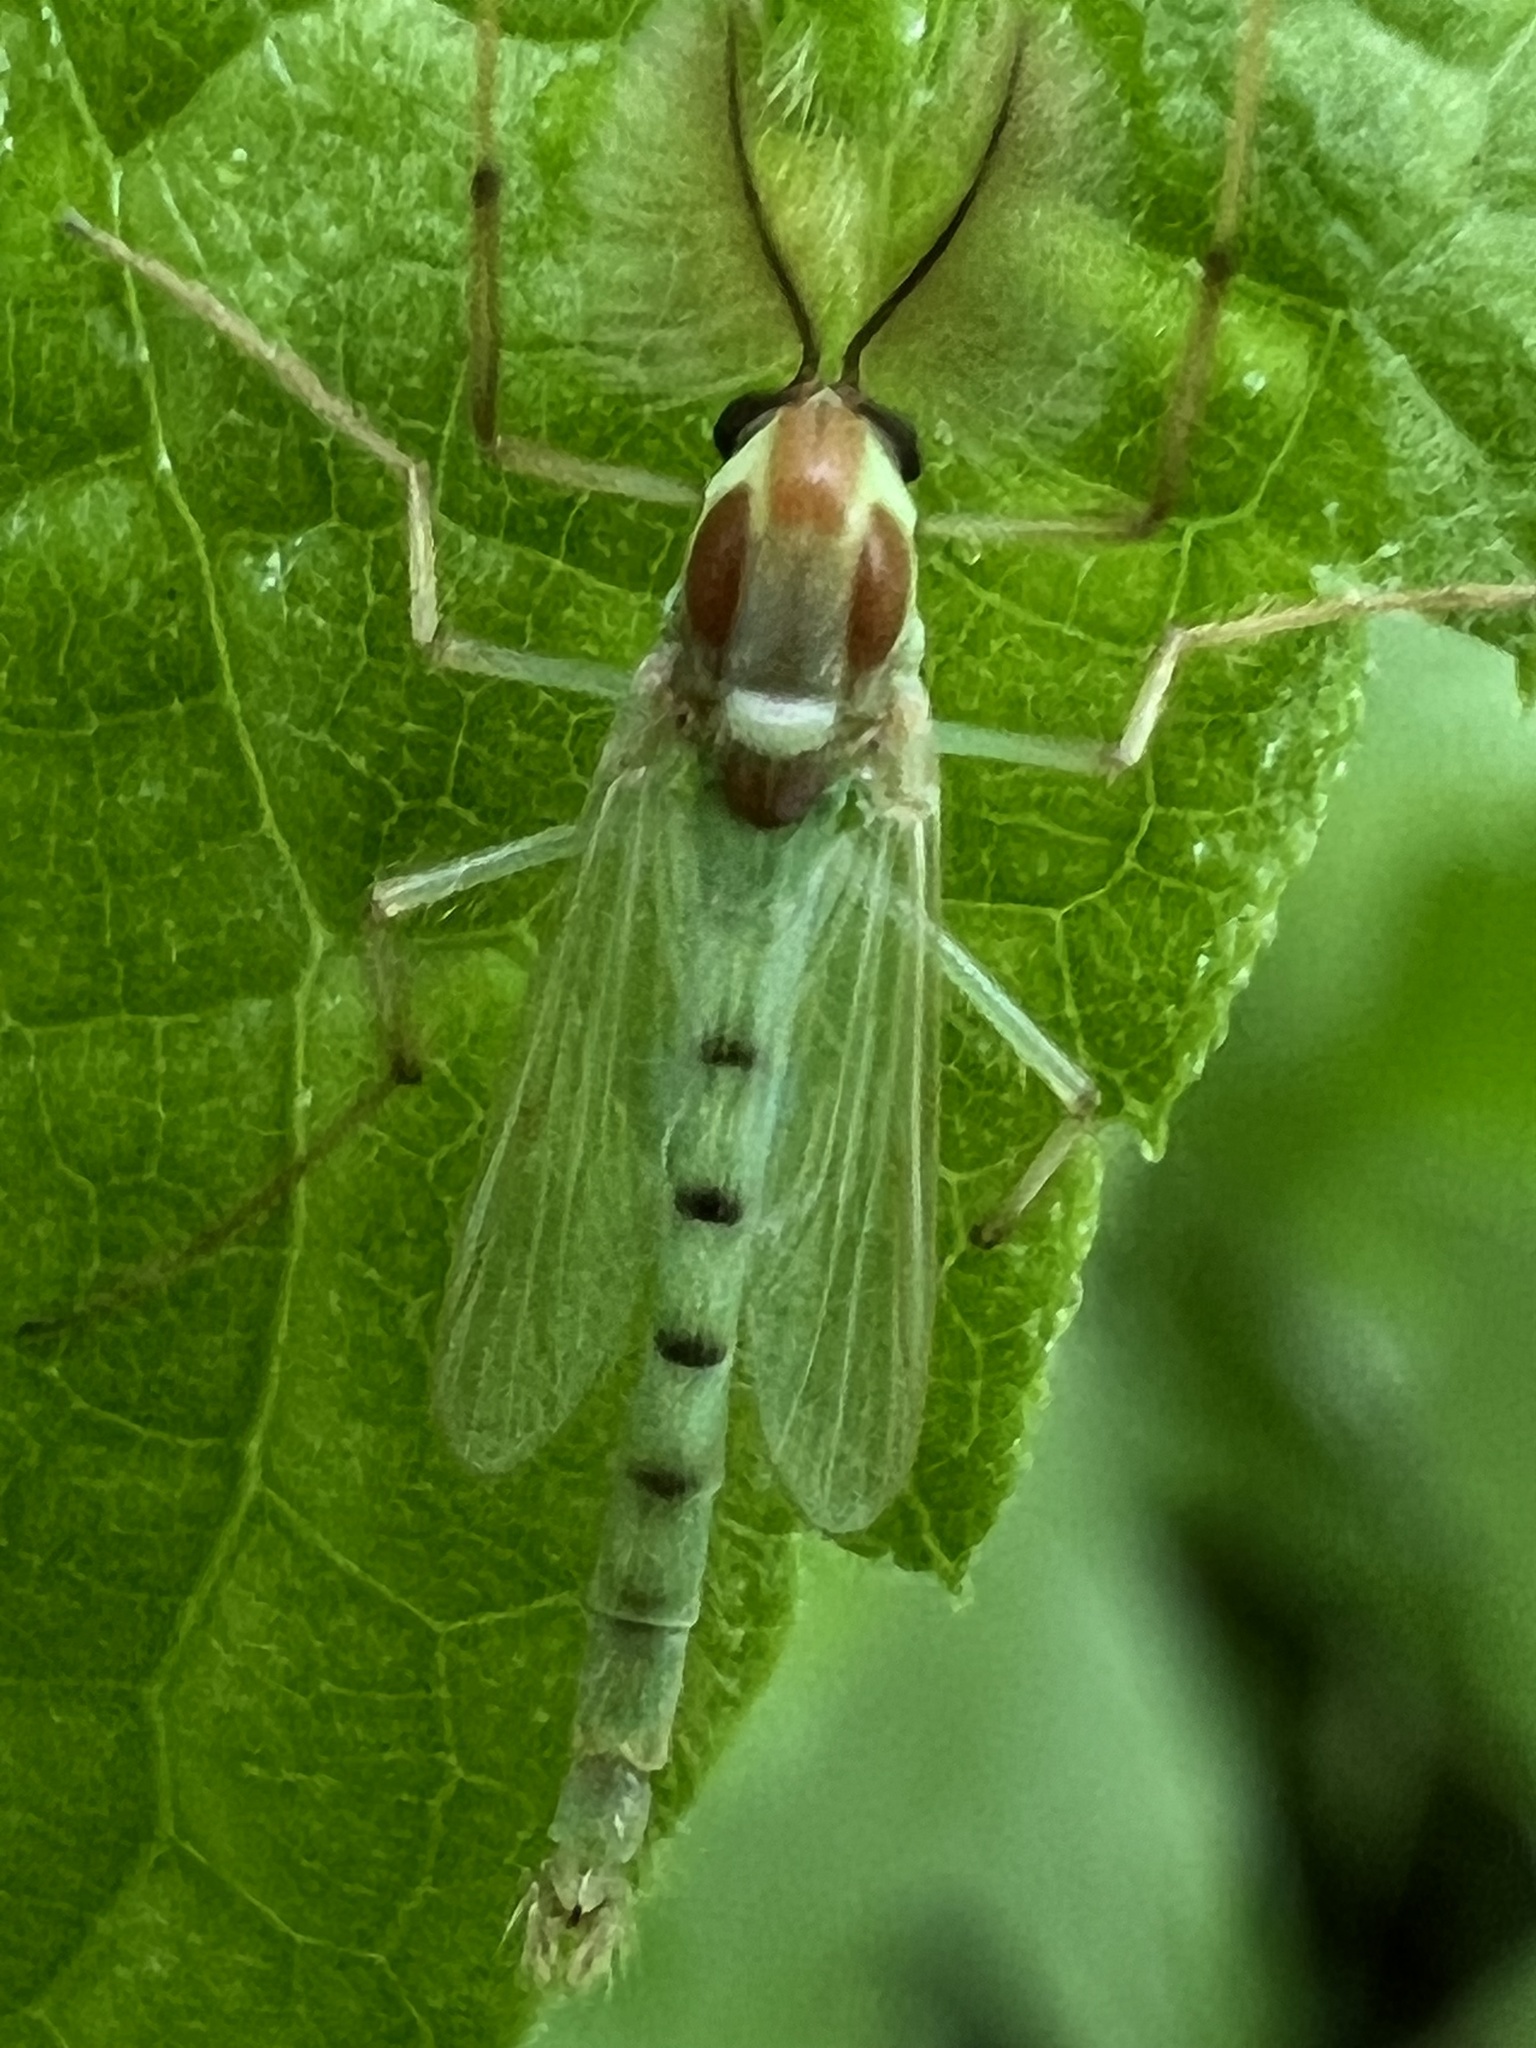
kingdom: Animalia
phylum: Arthropoda
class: Insecta
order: Diptera
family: Chironomidae
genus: Axarus
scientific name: Axarus
